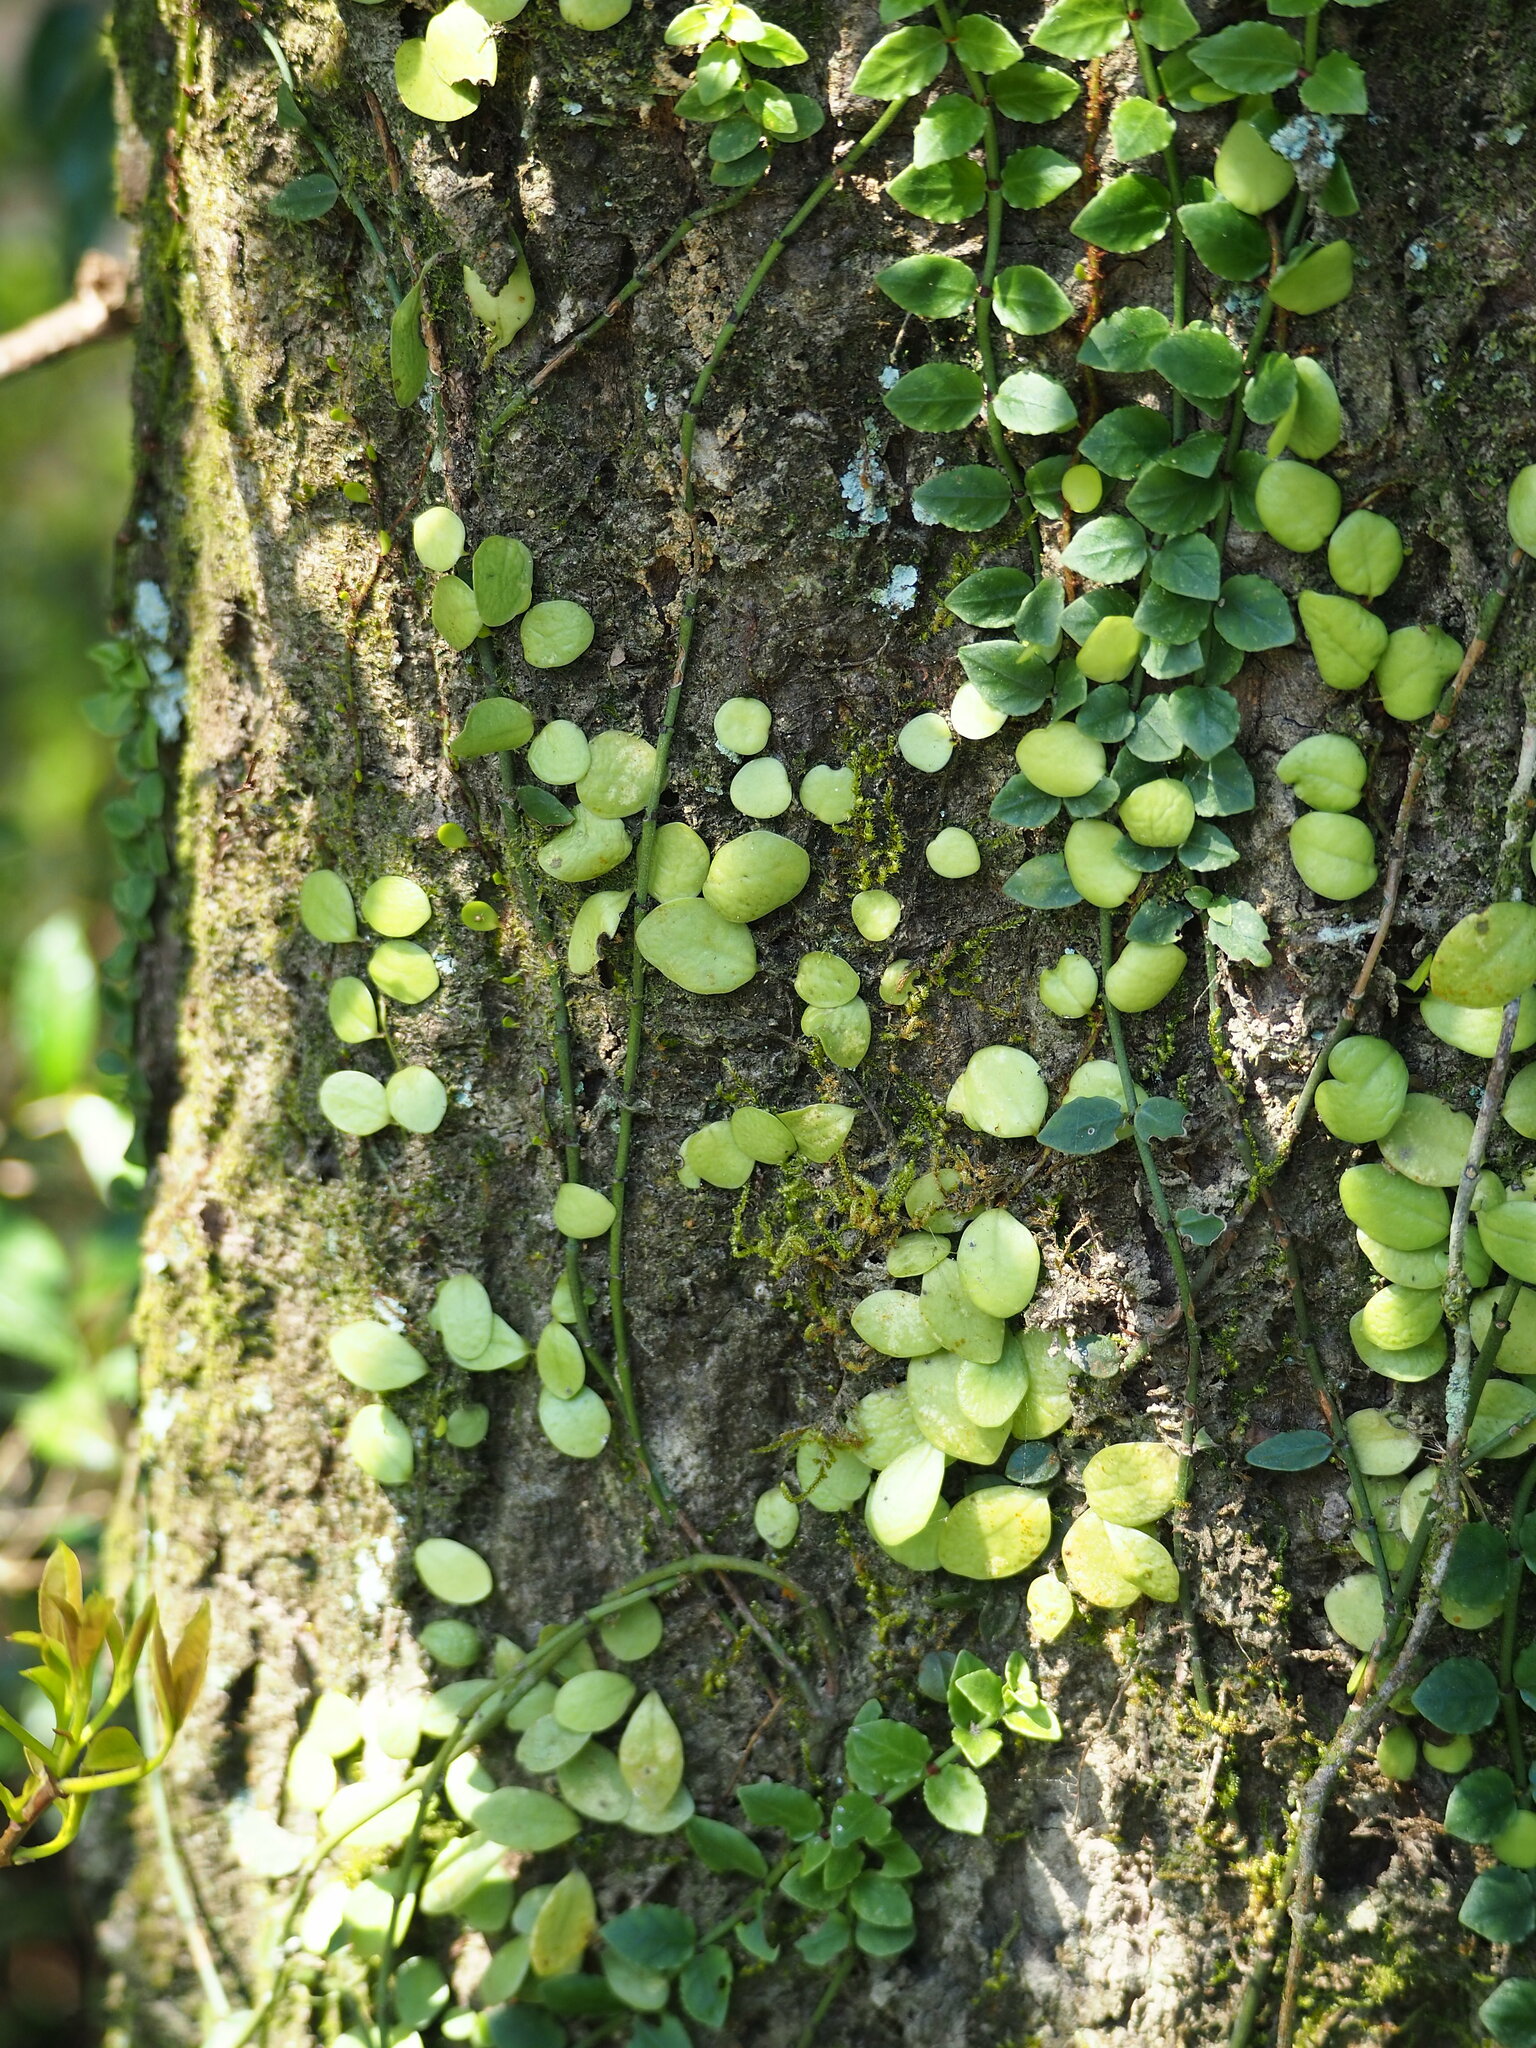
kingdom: Plantae
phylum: Tracheophyta
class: Polypodiopsida
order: Polypodiales
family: Polypodiaceae
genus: Lepisorus
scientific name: Lepisorus microphyllus
